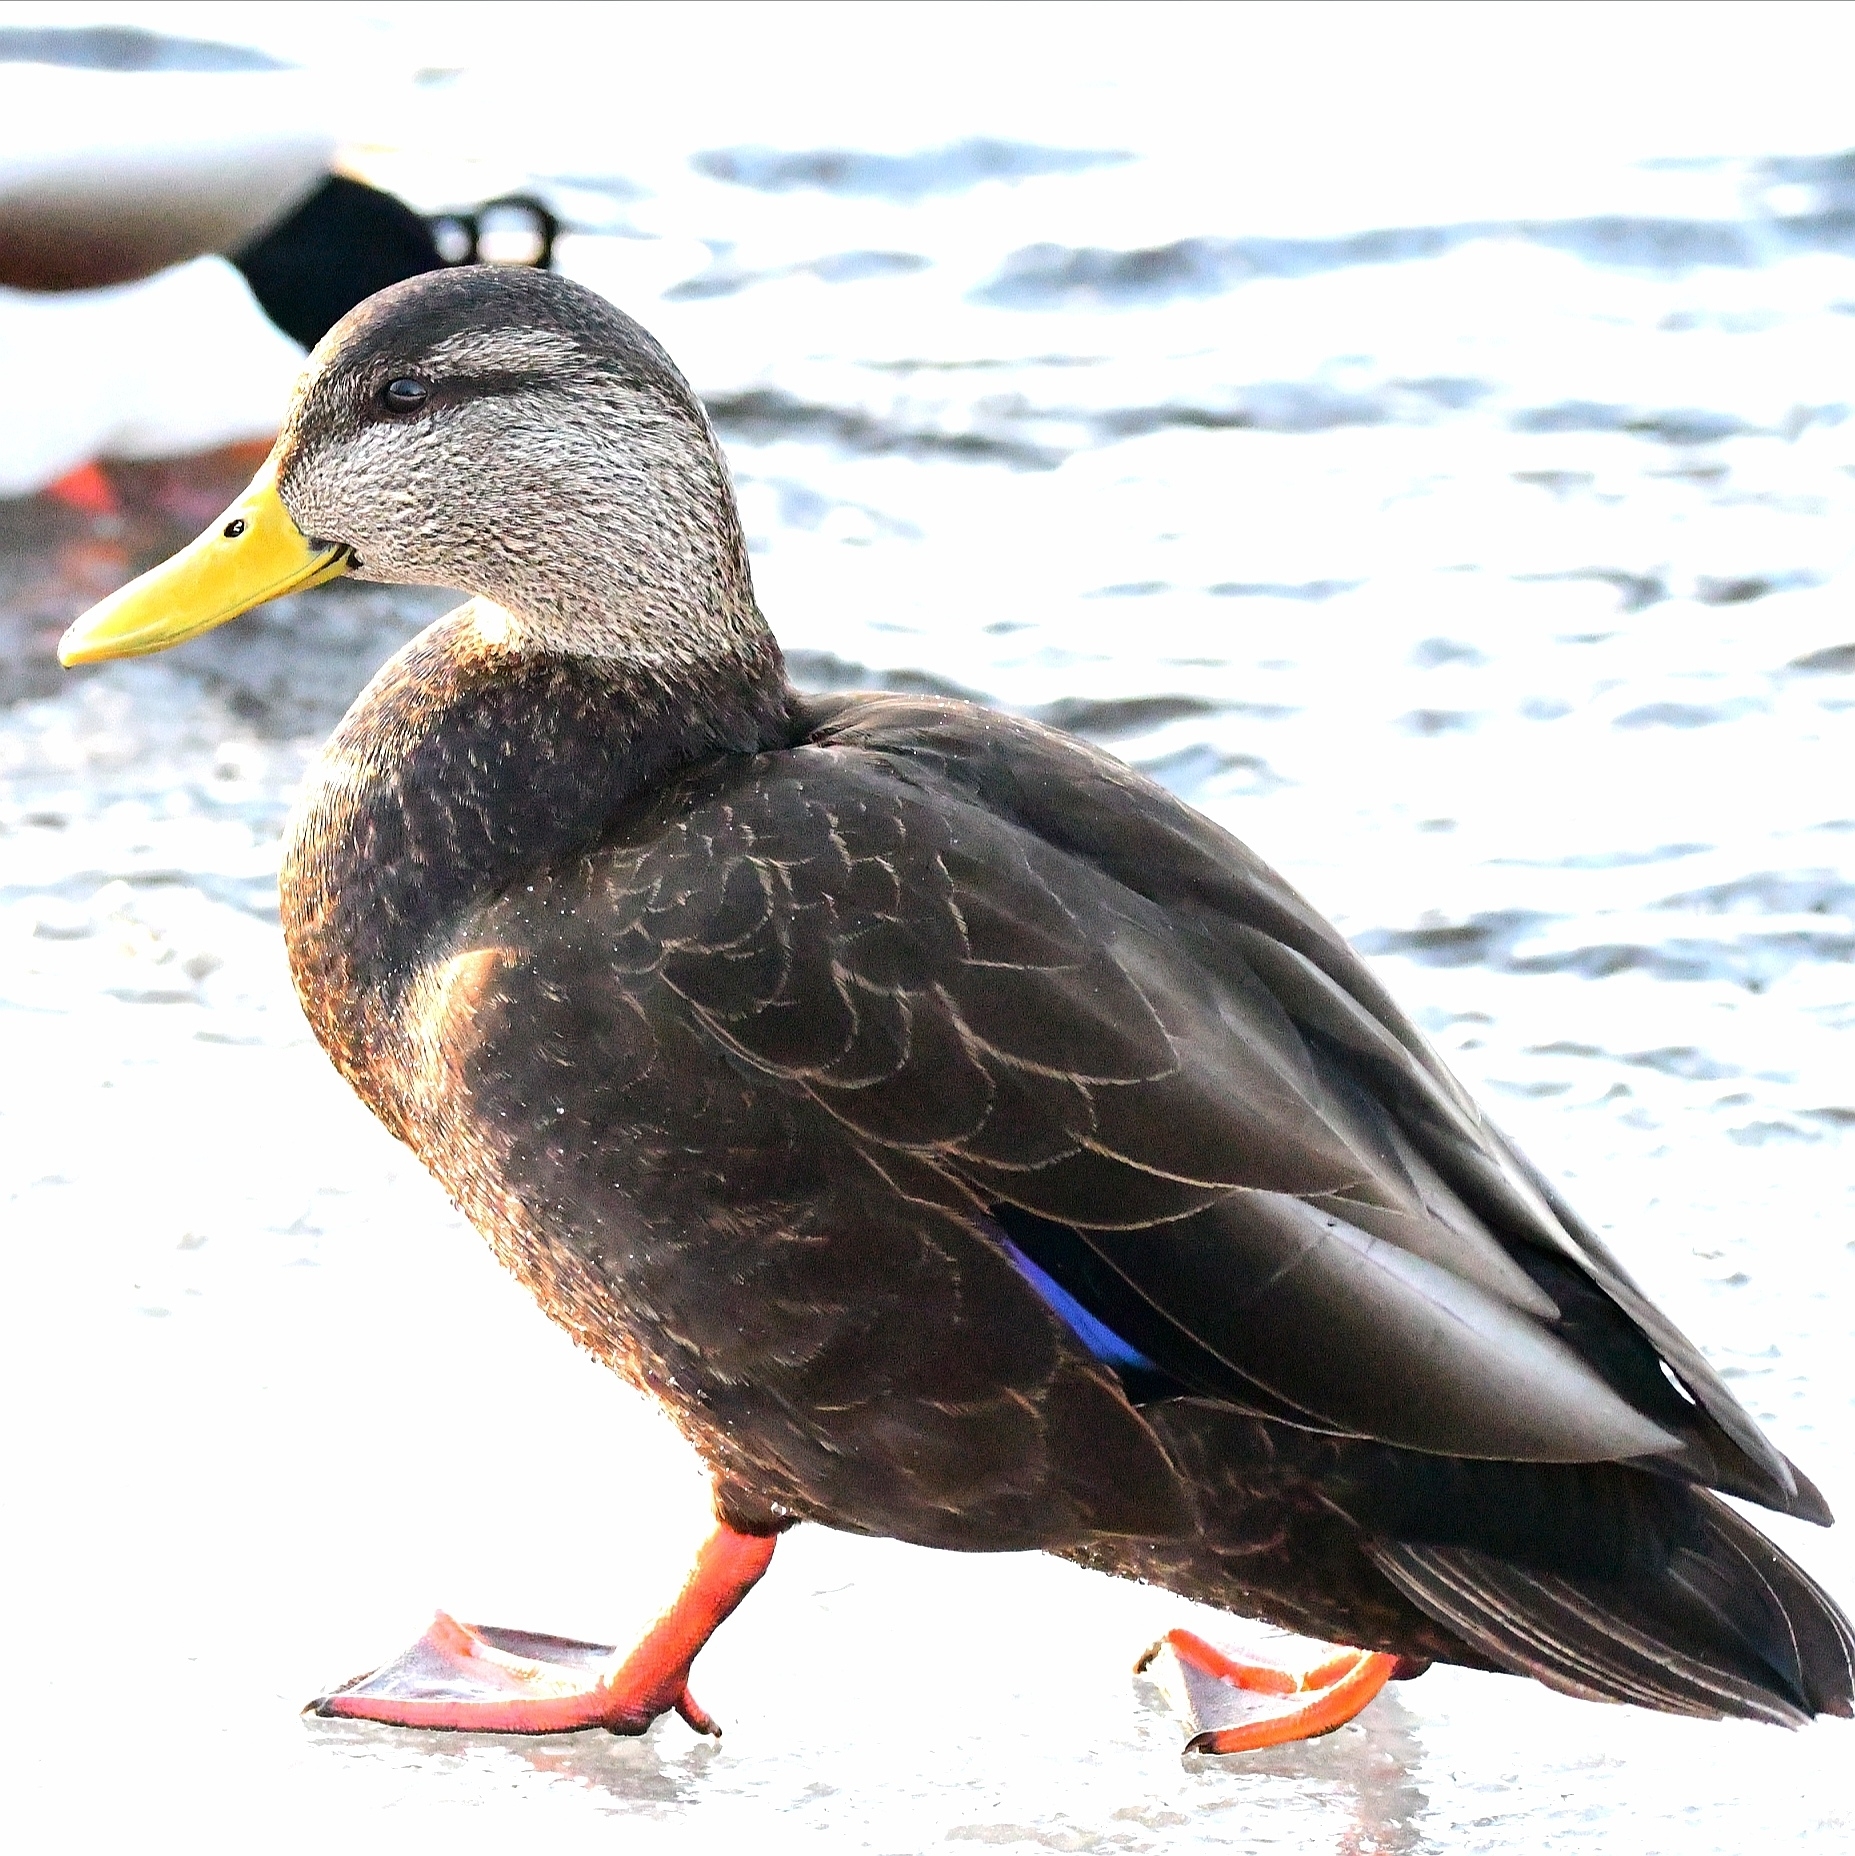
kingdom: Animalia
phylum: Chordata
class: Aves
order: Anseriformes
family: Anatidae
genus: Anas
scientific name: Anas rubripes
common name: American black duck
